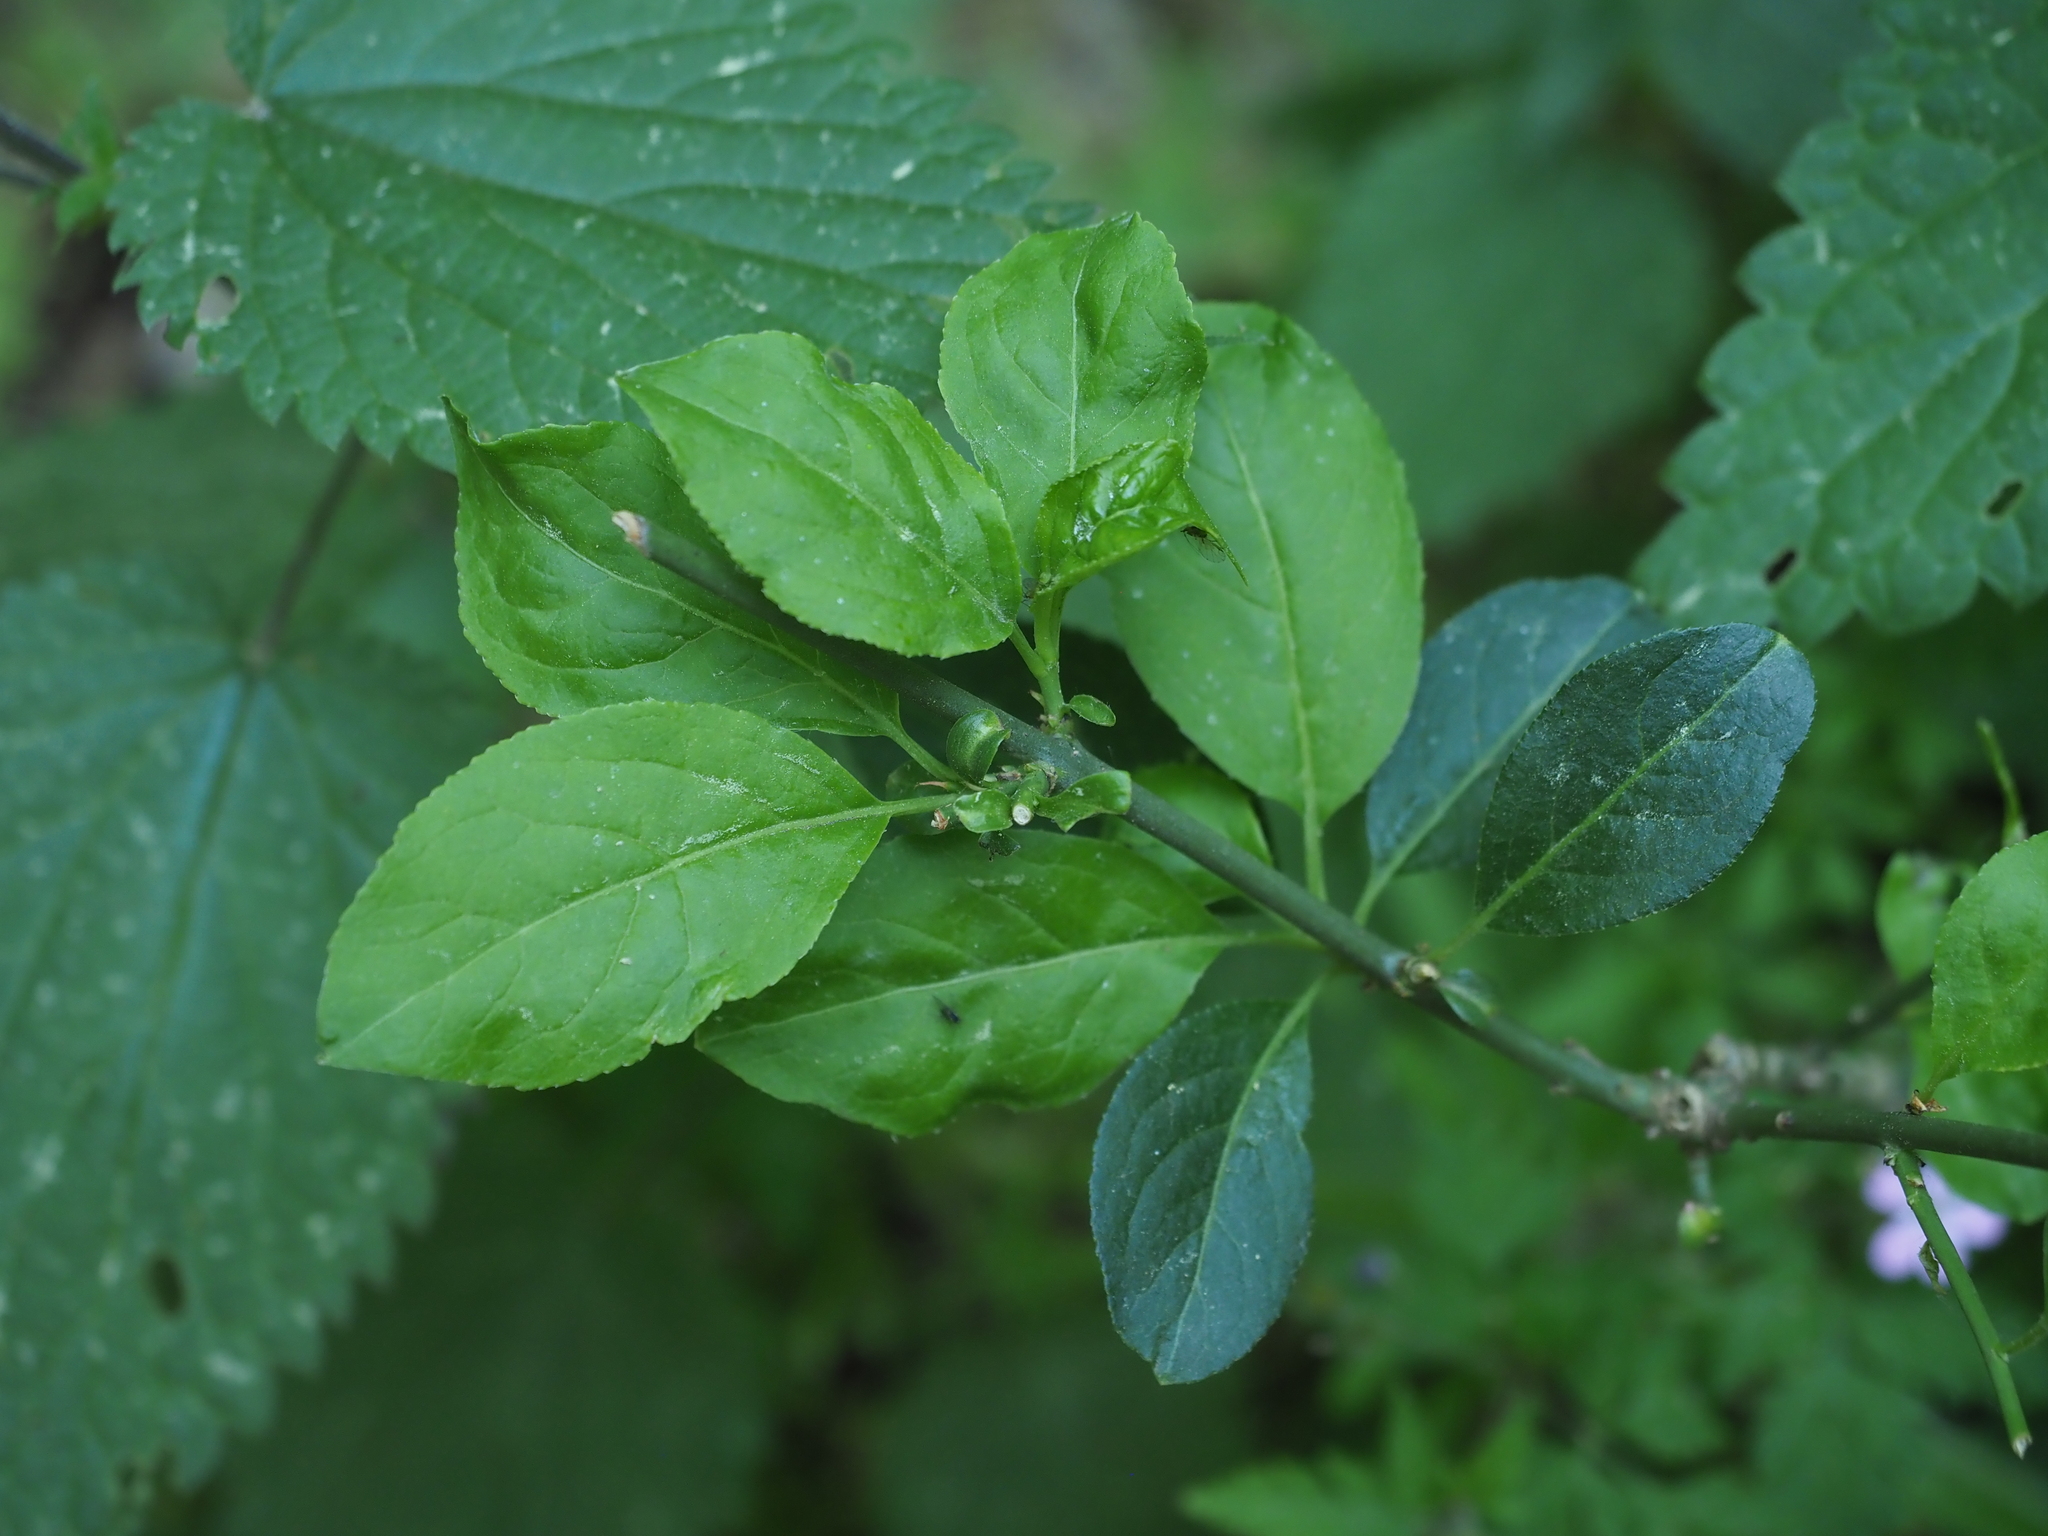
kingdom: Plantae
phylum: Tracheophyta
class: Magnoliopsida
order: Celastrales
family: Celastraceae
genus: Euonymus
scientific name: Euonymus europaeus
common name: Spindle
